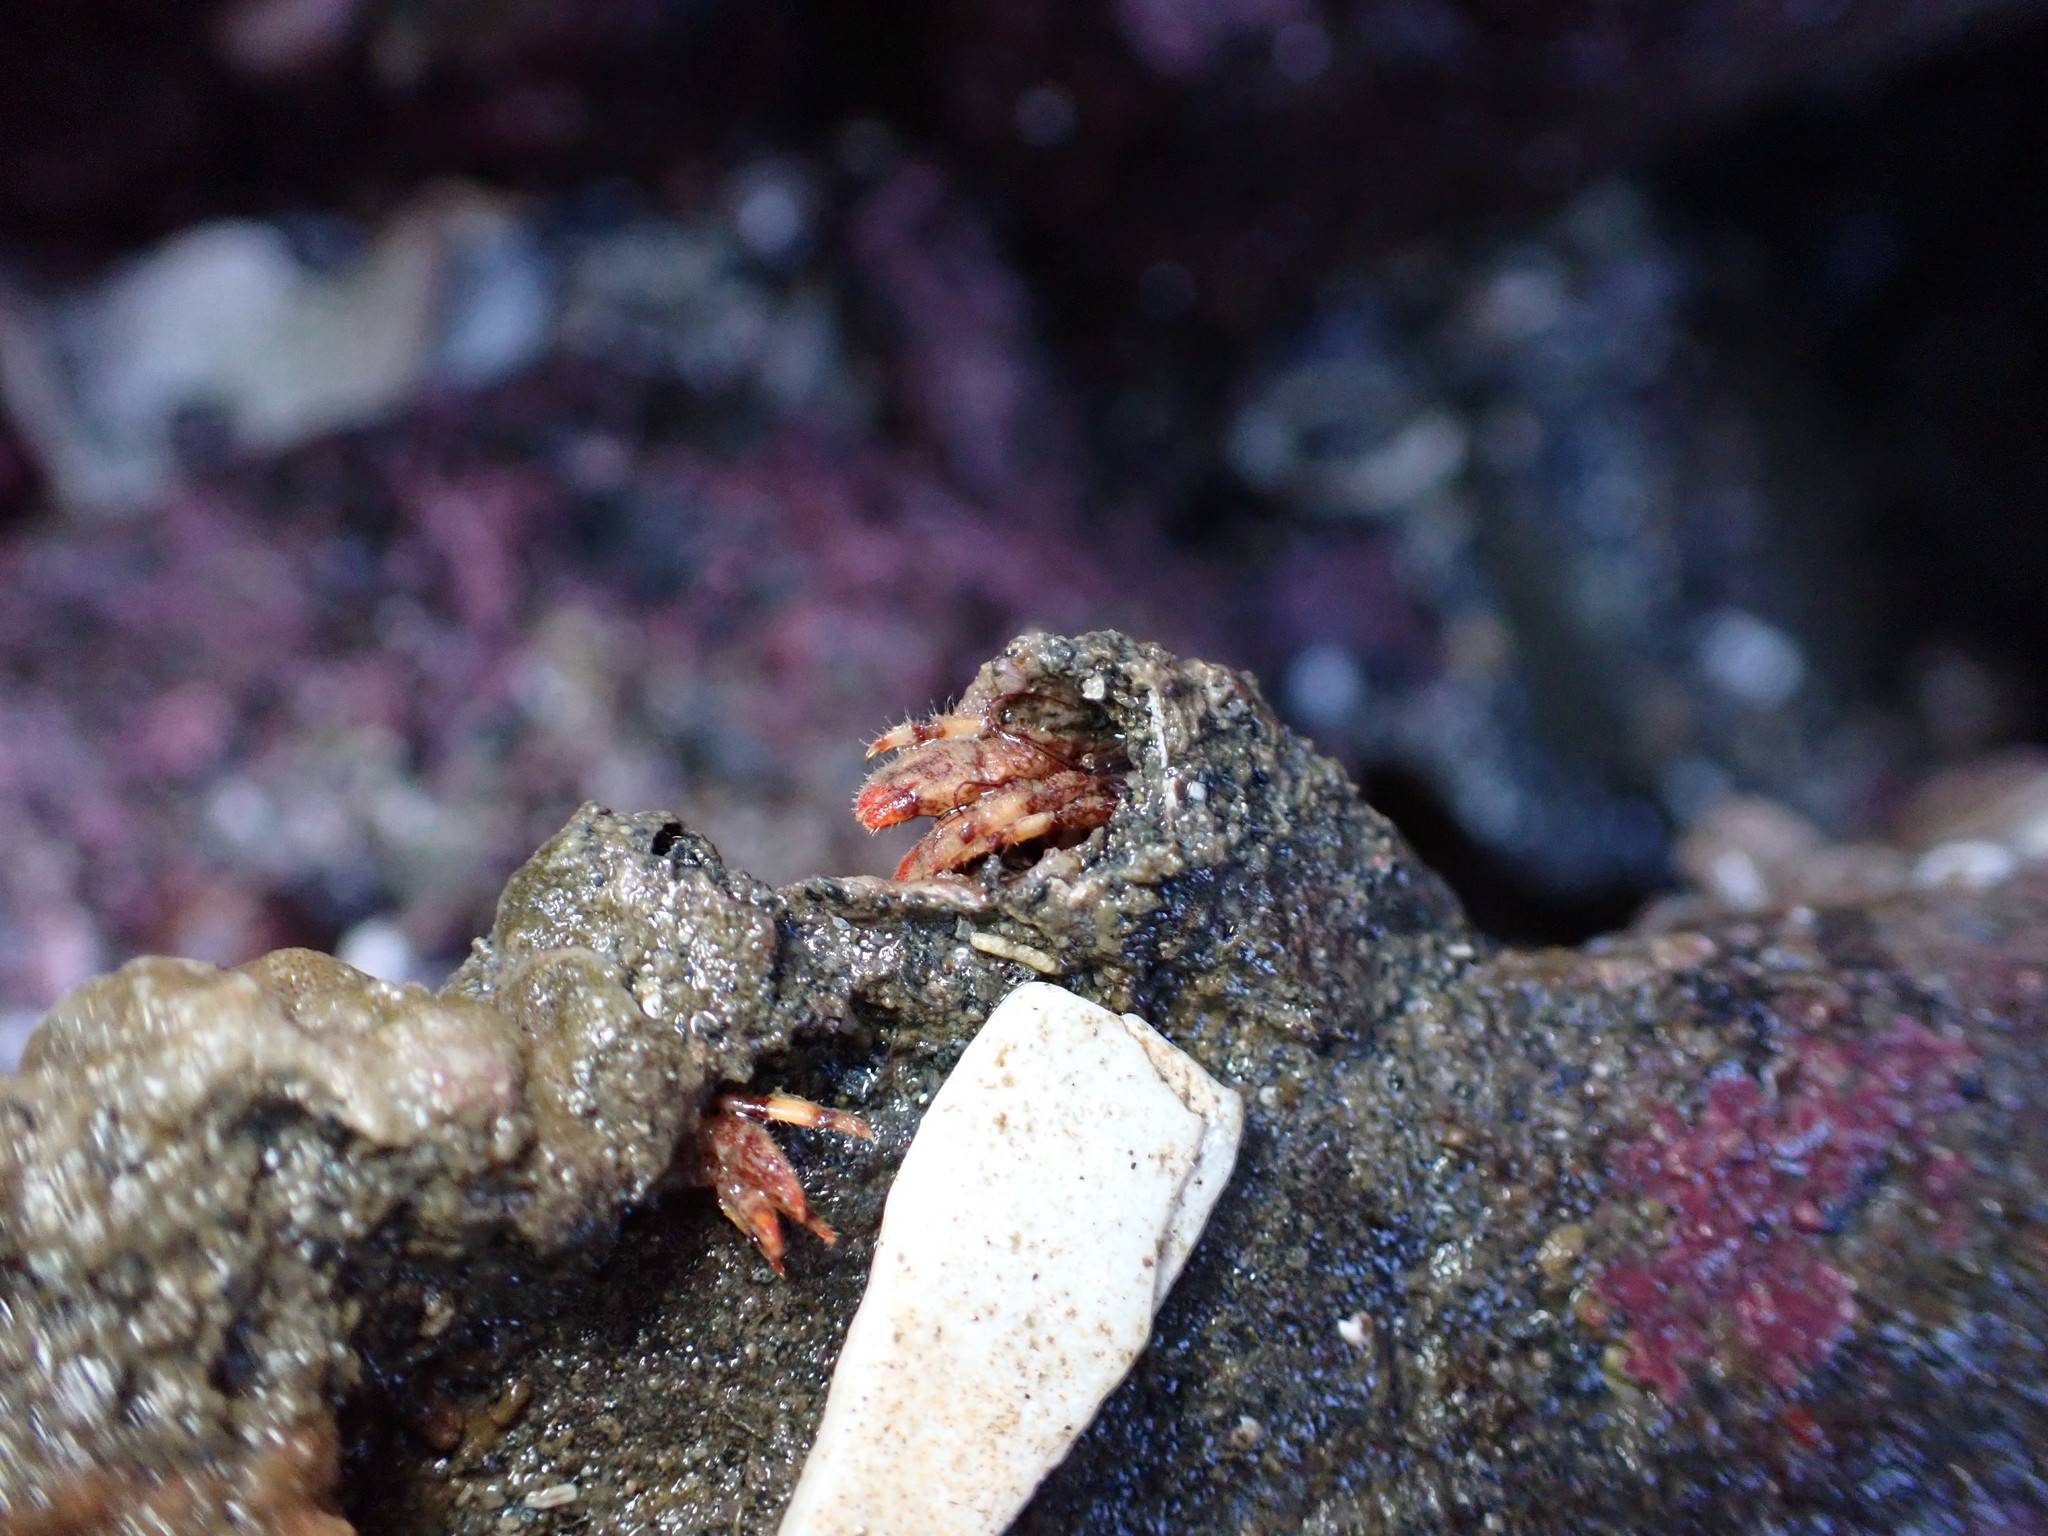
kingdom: Animalia
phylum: Arthropoda
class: Malacostraca
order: Decapoda
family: Paguridae
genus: Discorsopagurus
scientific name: Discorsopagurus schmitti
